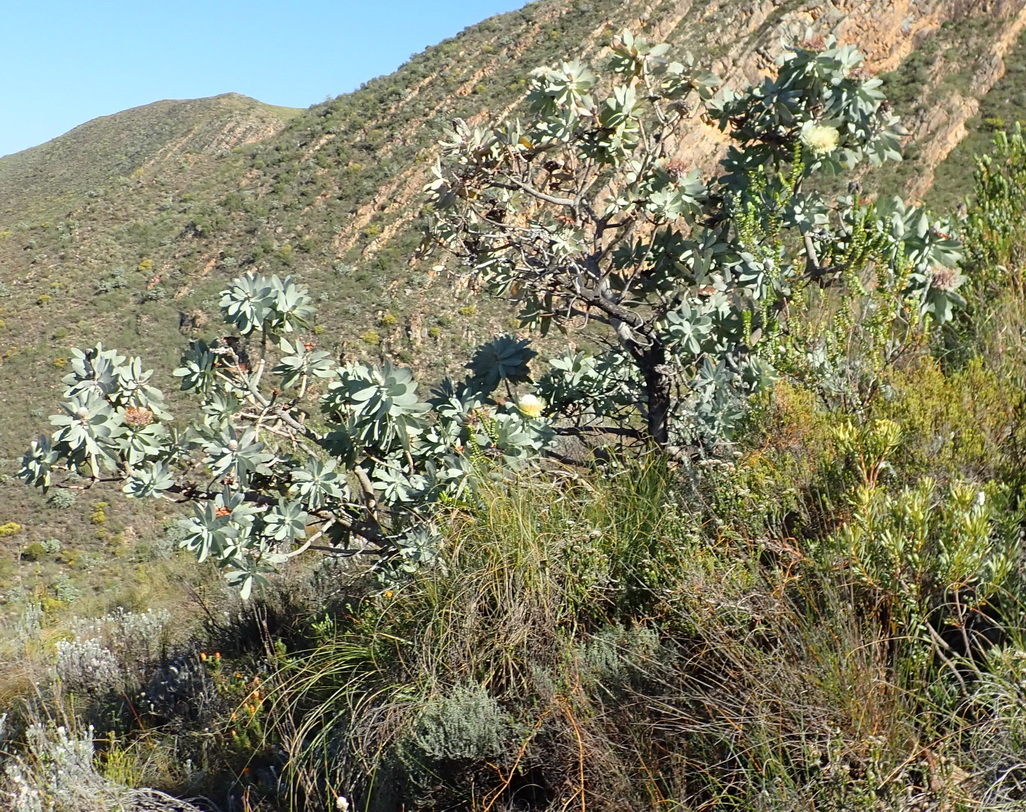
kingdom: Plantae
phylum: Tracheophyta
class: Magnoliopsida
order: Proteales
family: Proteaceae
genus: Protea
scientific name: Protea nitida
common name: Tree protea
